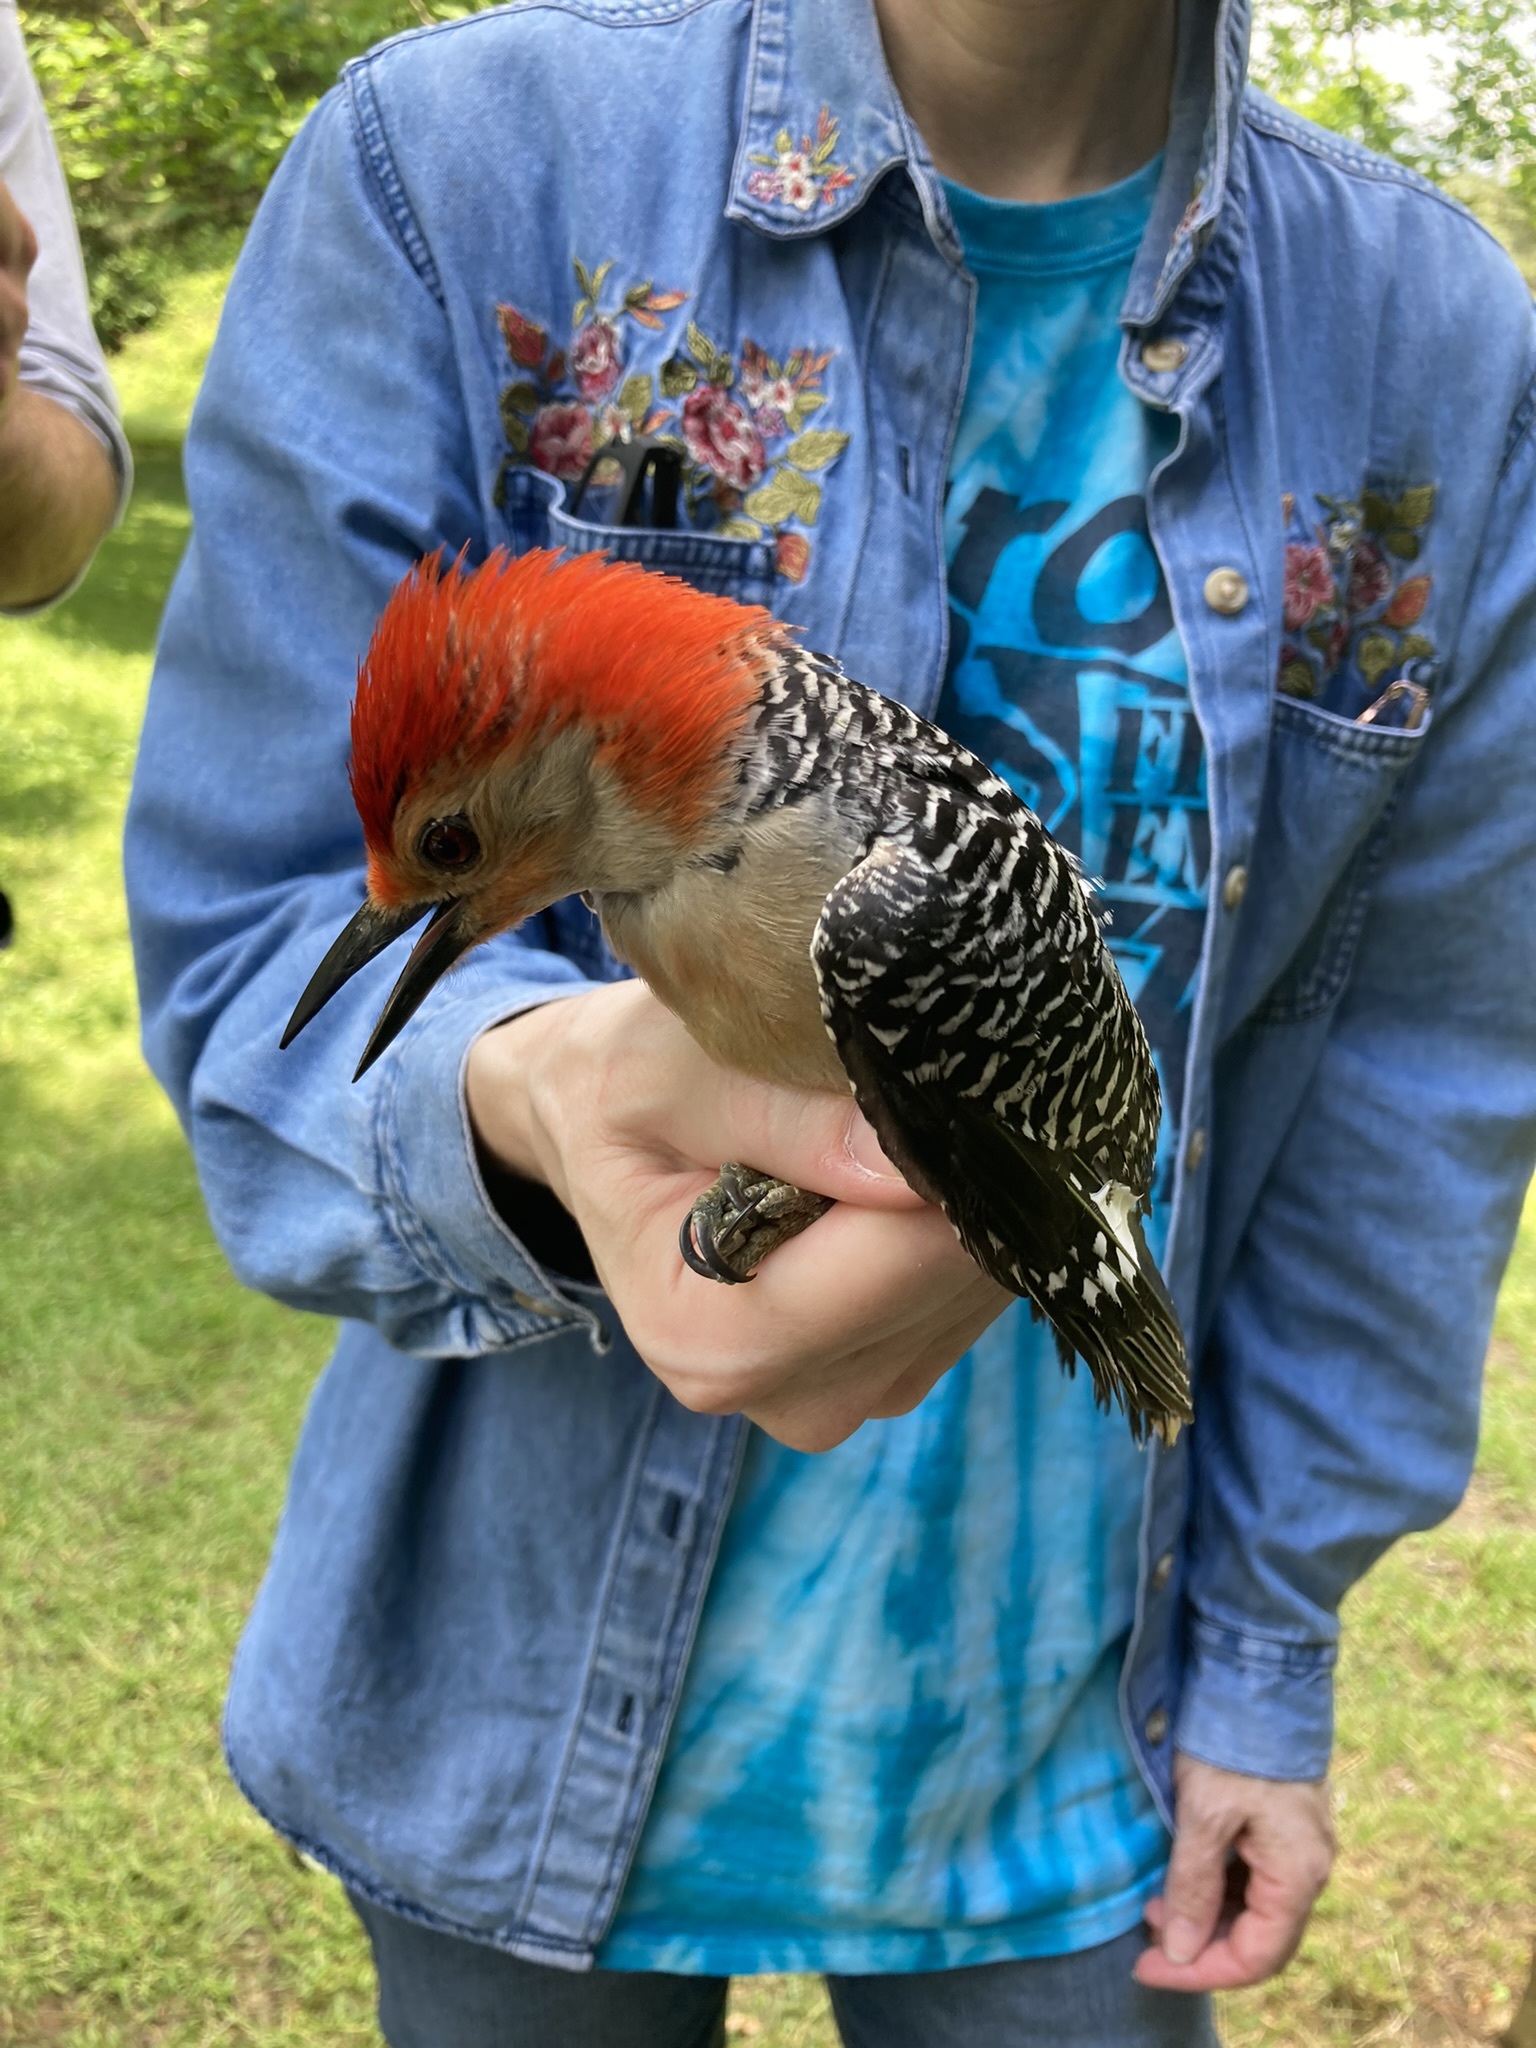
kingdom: Animalia
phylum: Chordata
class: Aves
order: Piciformes
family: Picidae
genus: Melanerpes
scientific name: Melanerpes carolinus
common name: Red-bellied woodpecker
